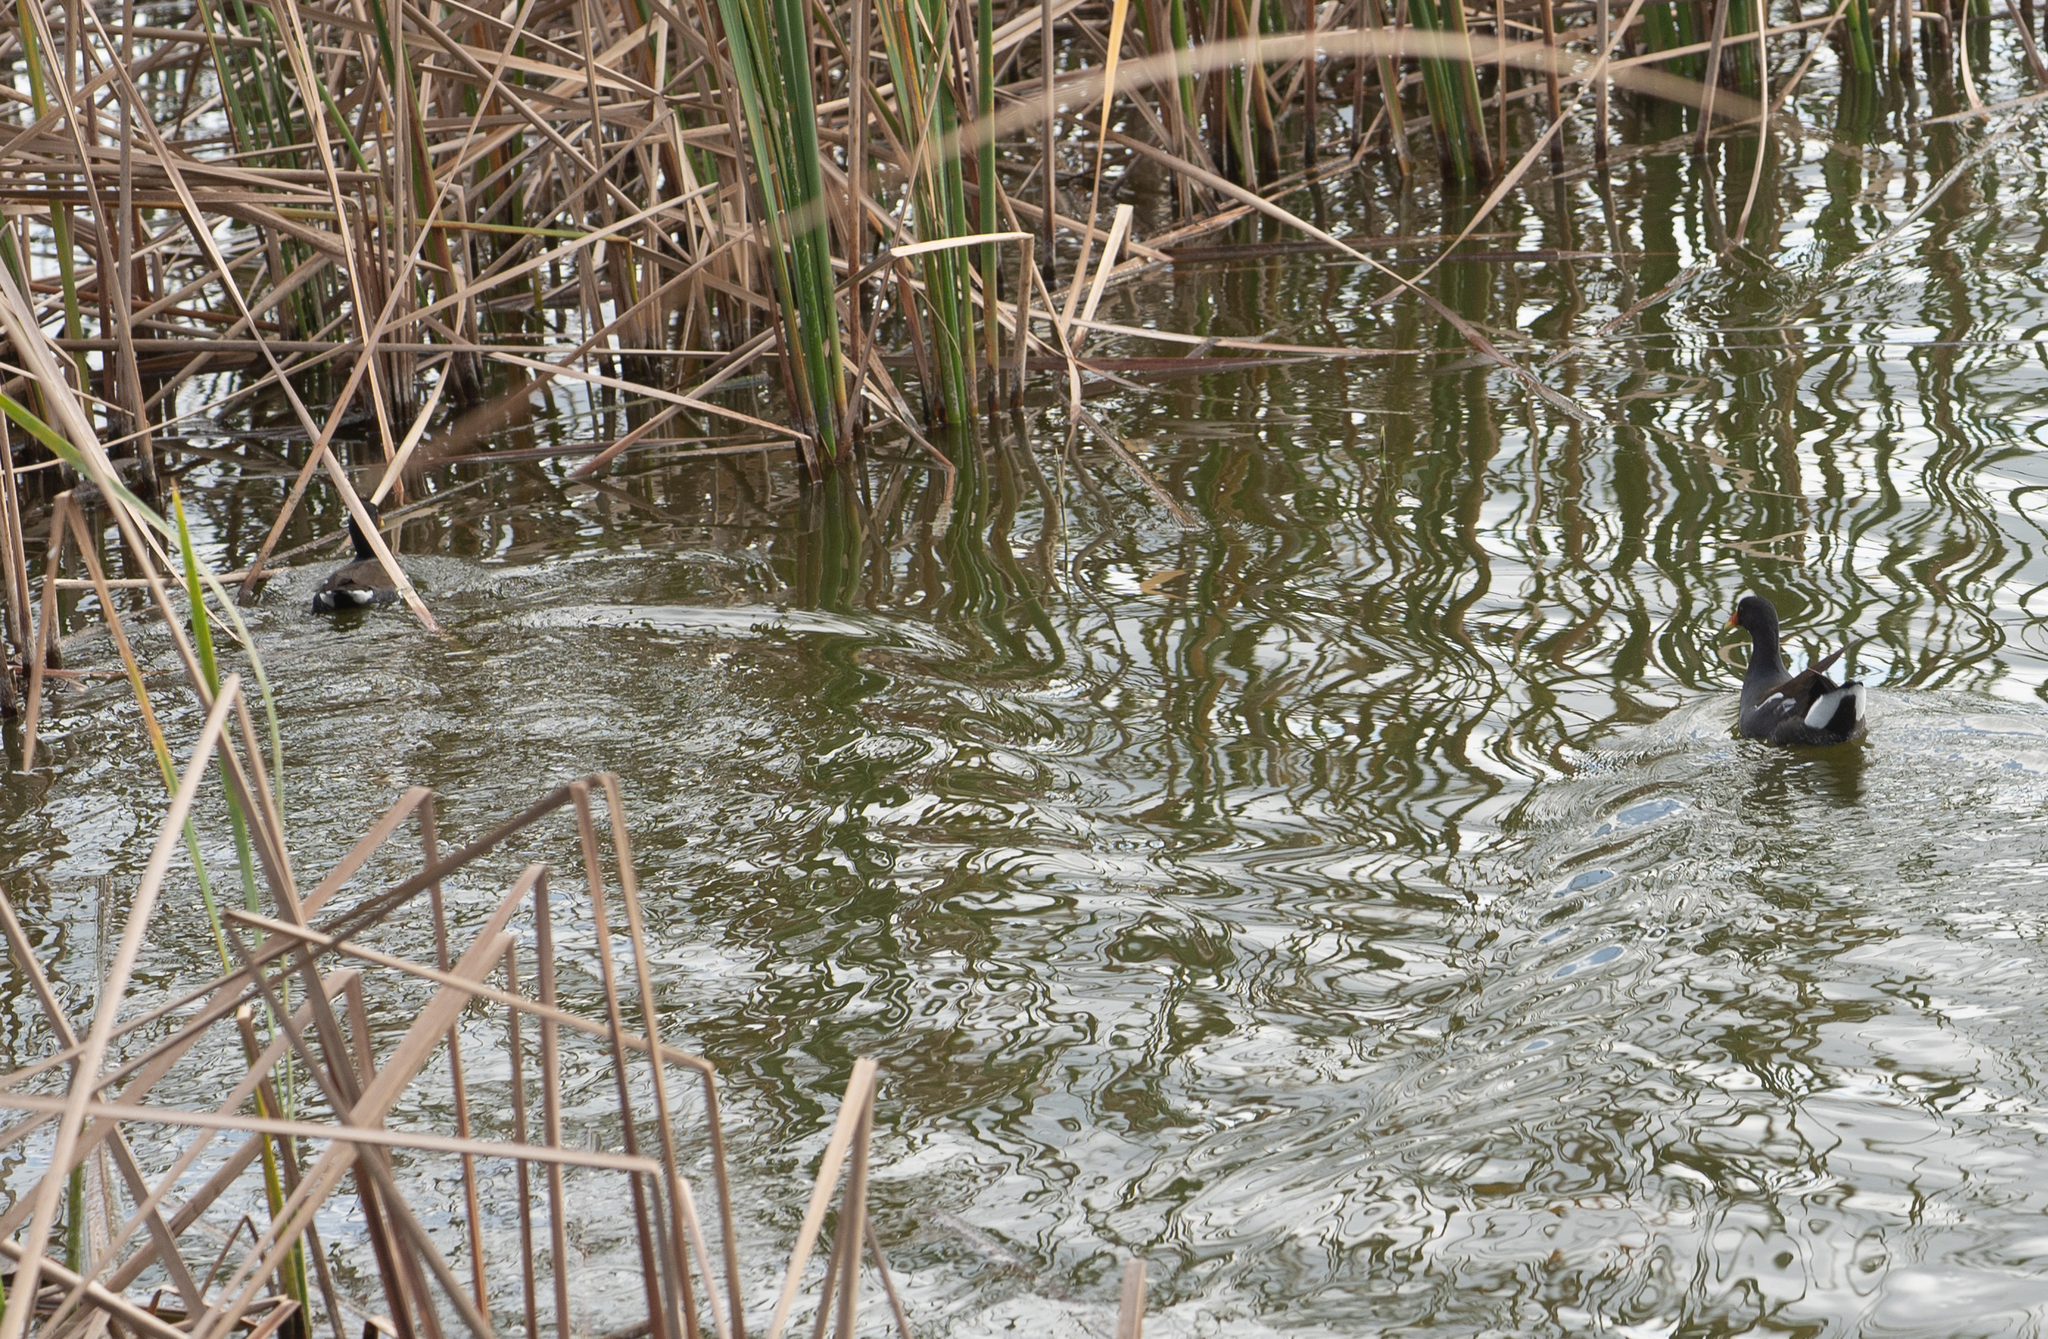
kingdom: Animalia
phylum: Chordata
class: Aves
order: Gruiformes
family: Rallidae
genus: Gallinula
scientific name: Gallinula chloropus
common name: Common moorhen
